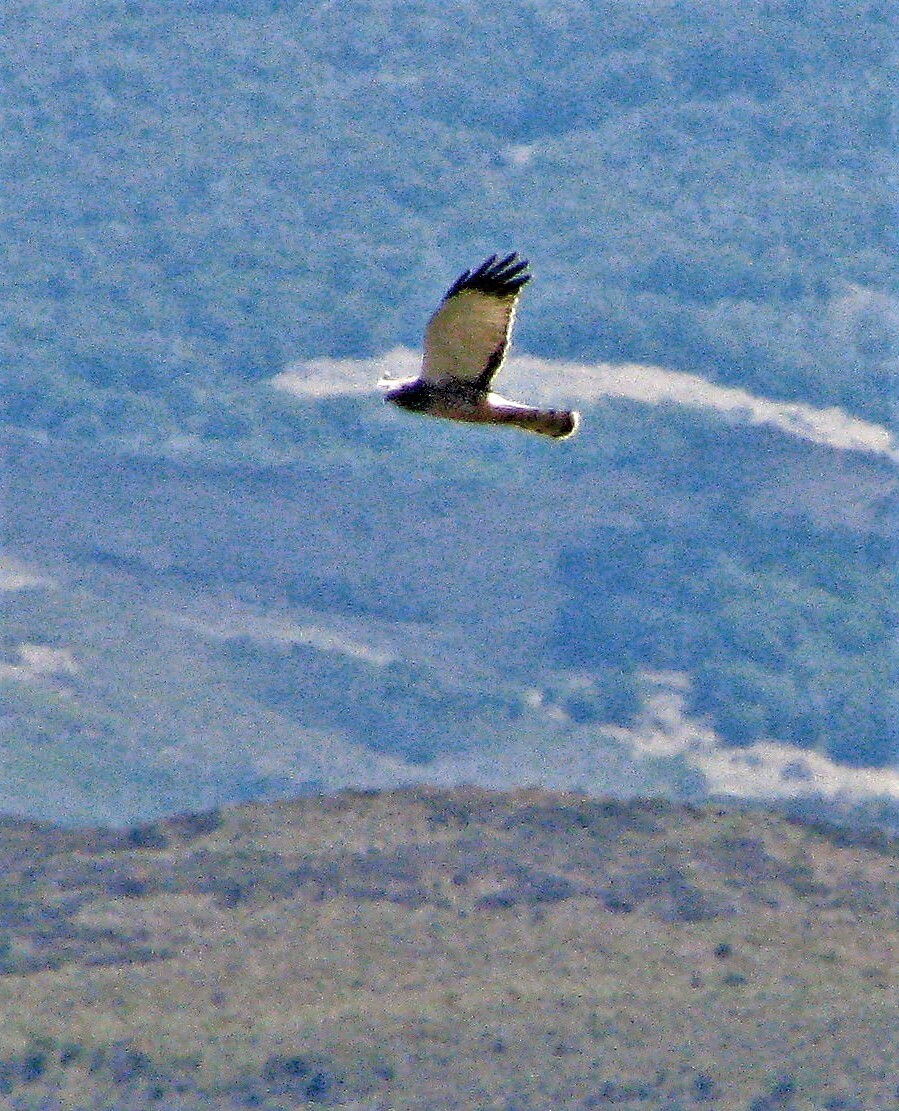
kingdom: Animalia
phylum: Chordata
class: Aves
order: Accipitriformes
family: Accipitridae
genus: Circus
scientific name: Circus cinereus
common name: Cinereous harrier
